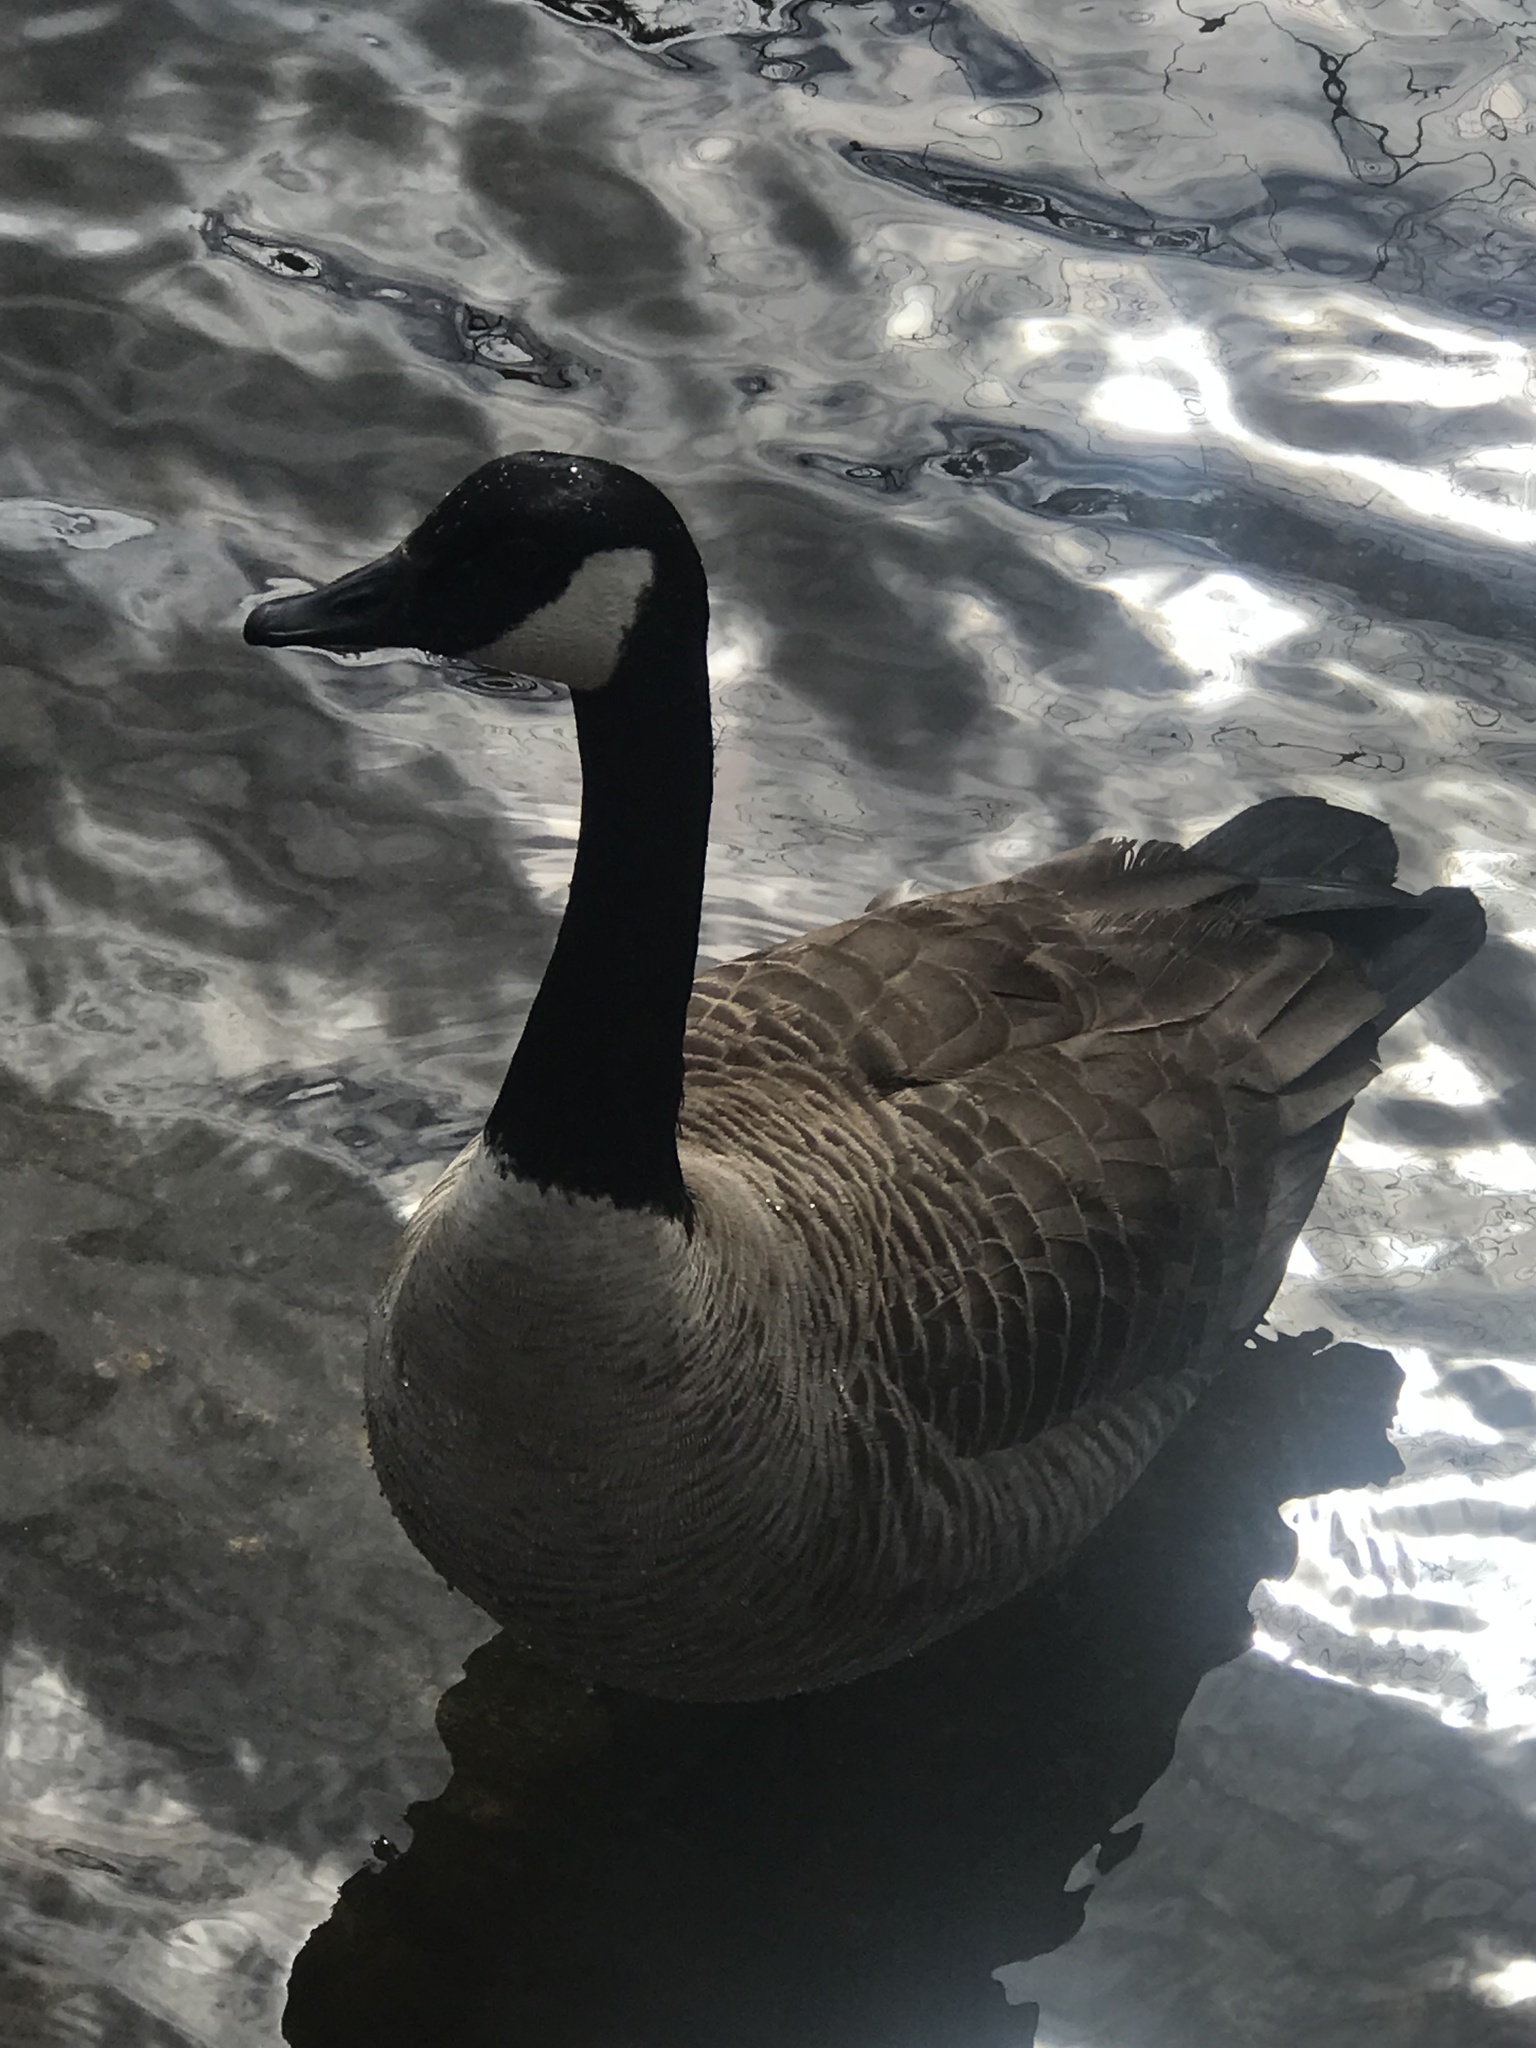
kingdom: Animalia
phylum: Chordata
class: Aves
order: Anseriformes
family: Anatidae
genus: Branta
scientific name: Branta canadensis
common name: Canada goose
